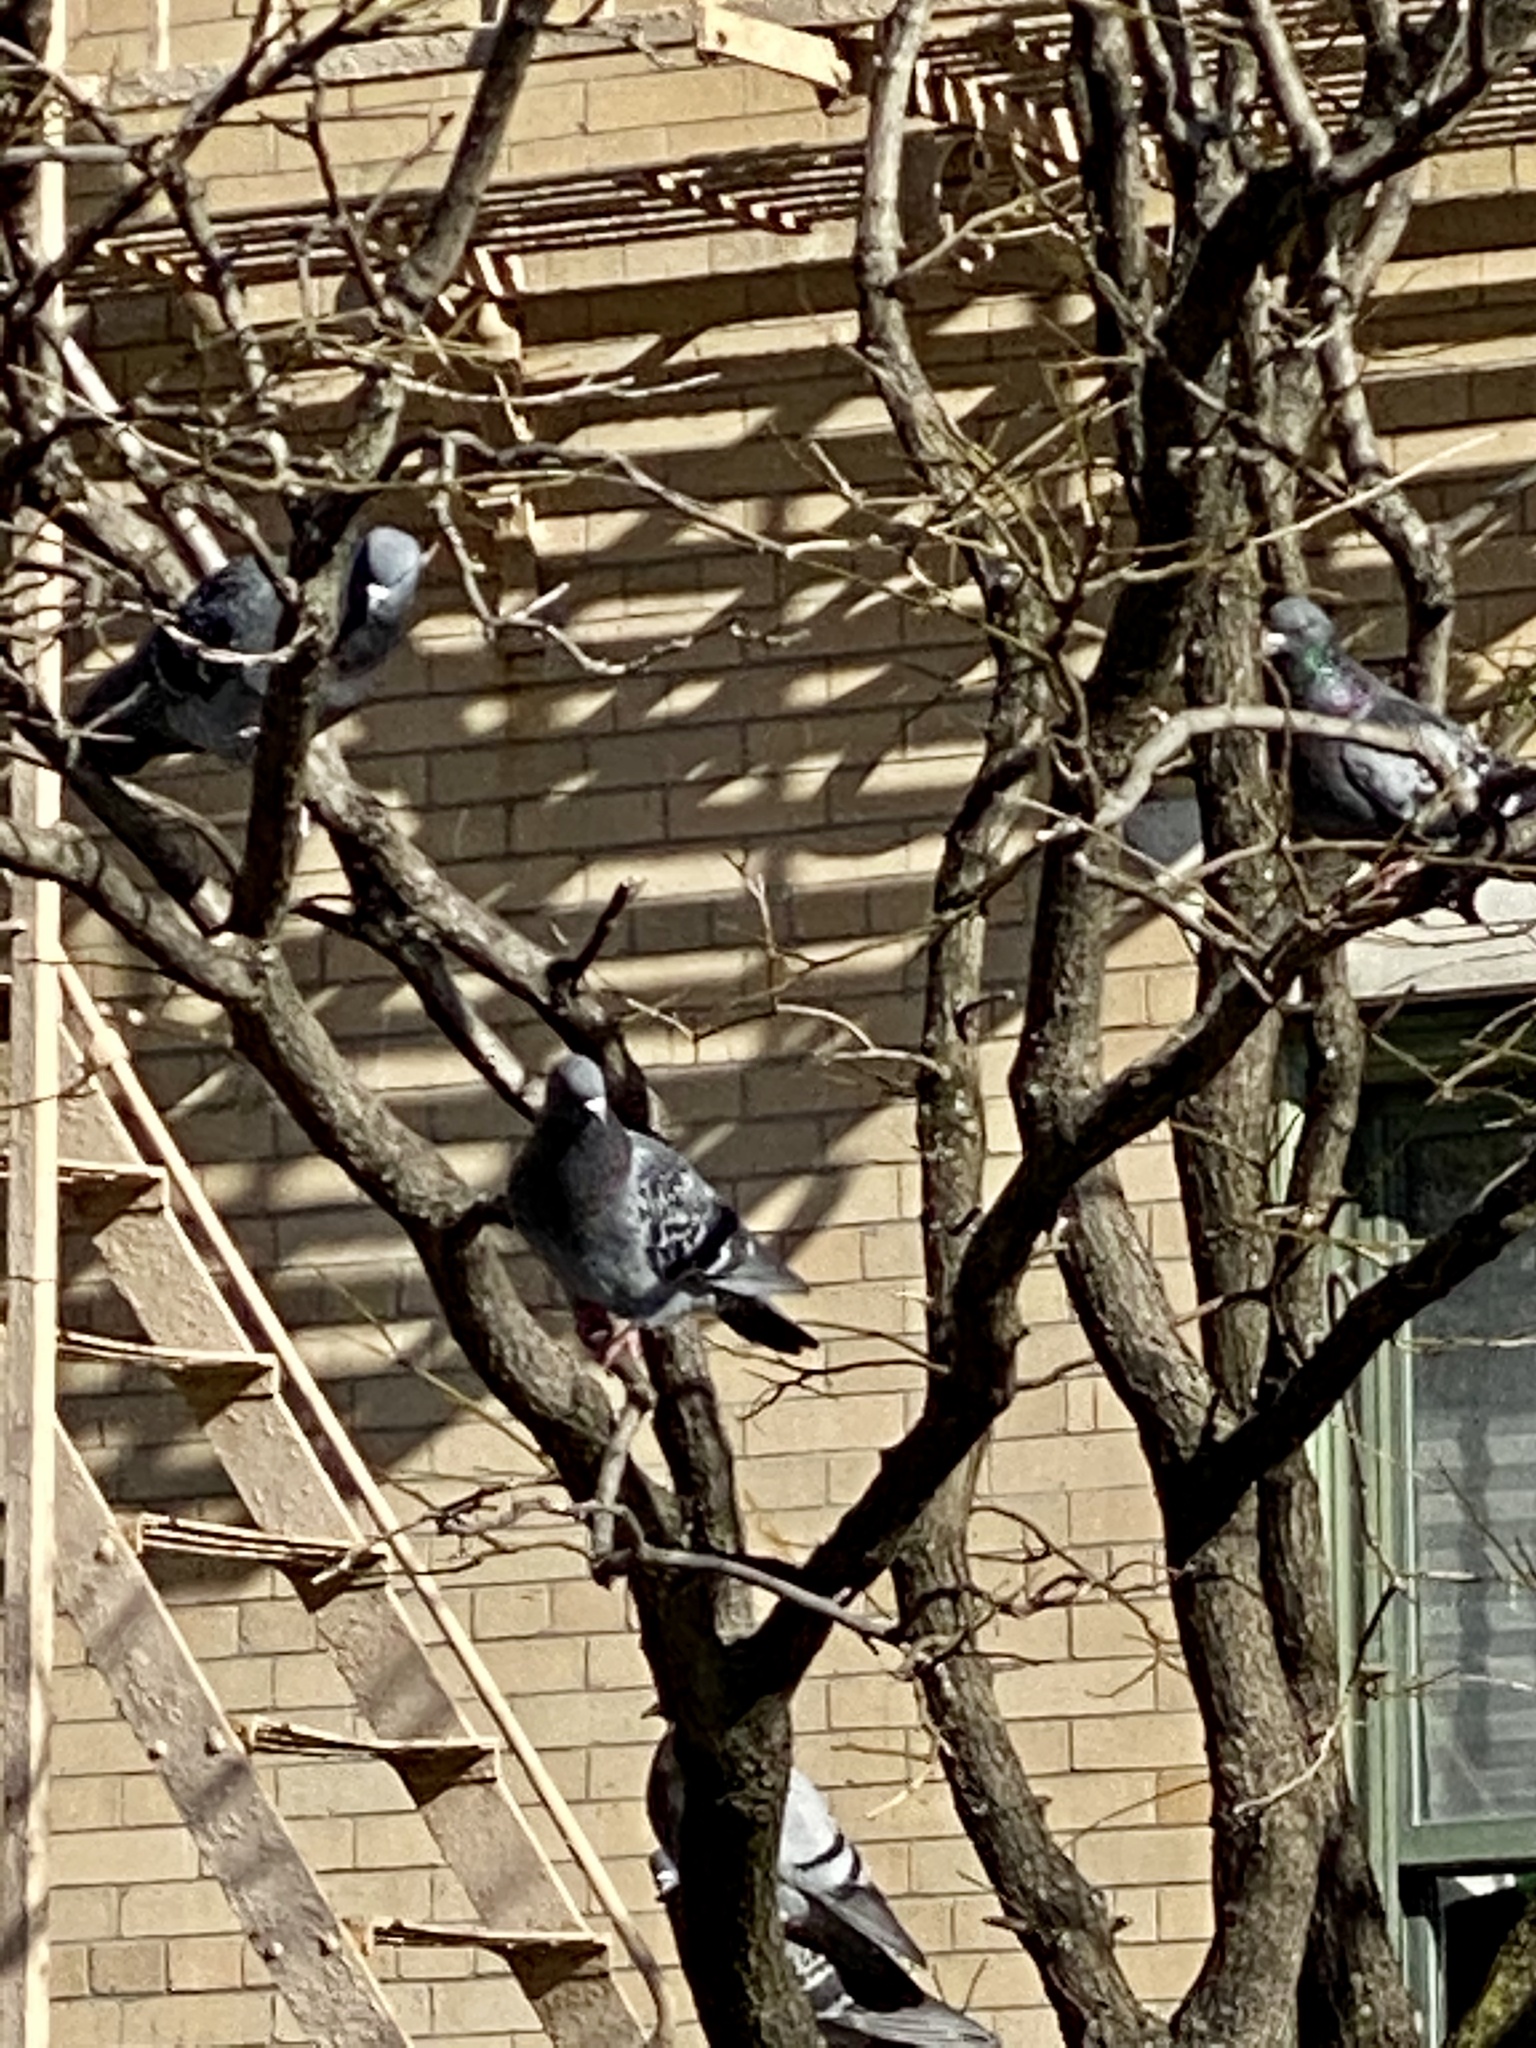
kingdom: Animalia
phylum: Chordata
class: Aves
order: Columbiformes
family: Columbidae
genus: Columba
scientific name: Columba livia
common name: Rock pigeon
